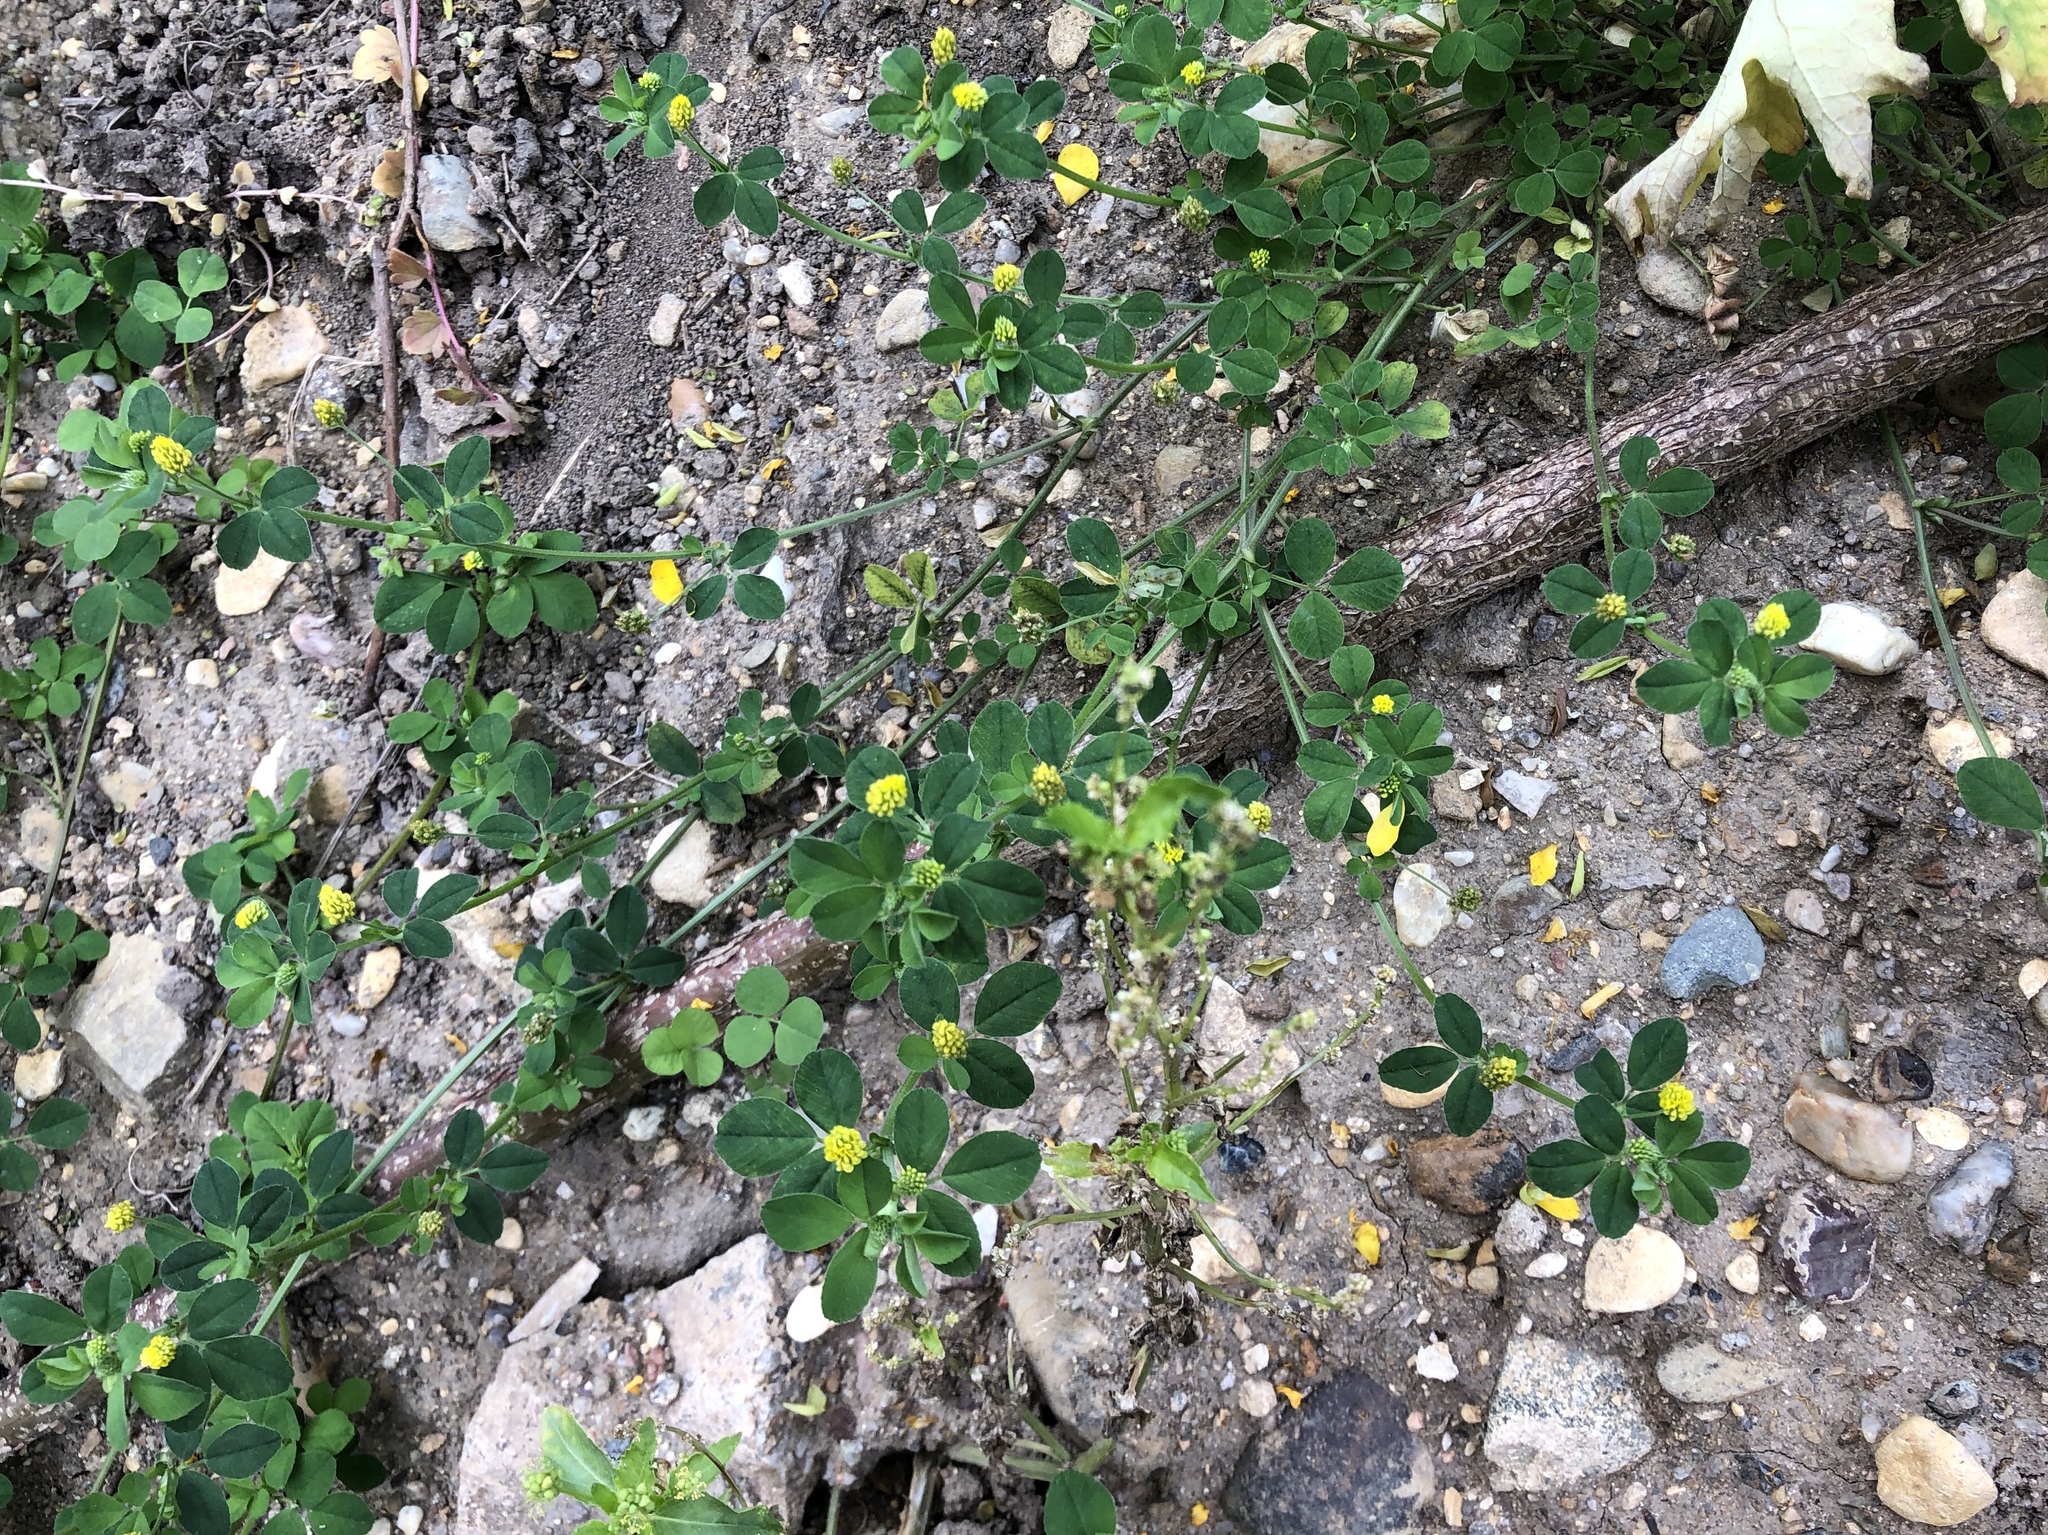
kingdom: Plantae
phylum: Tracheophyta
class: Magnoliopsida
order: Fabales
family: Fabaceae
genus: Medicago
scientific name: Medicago lupulina
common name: Black medick
